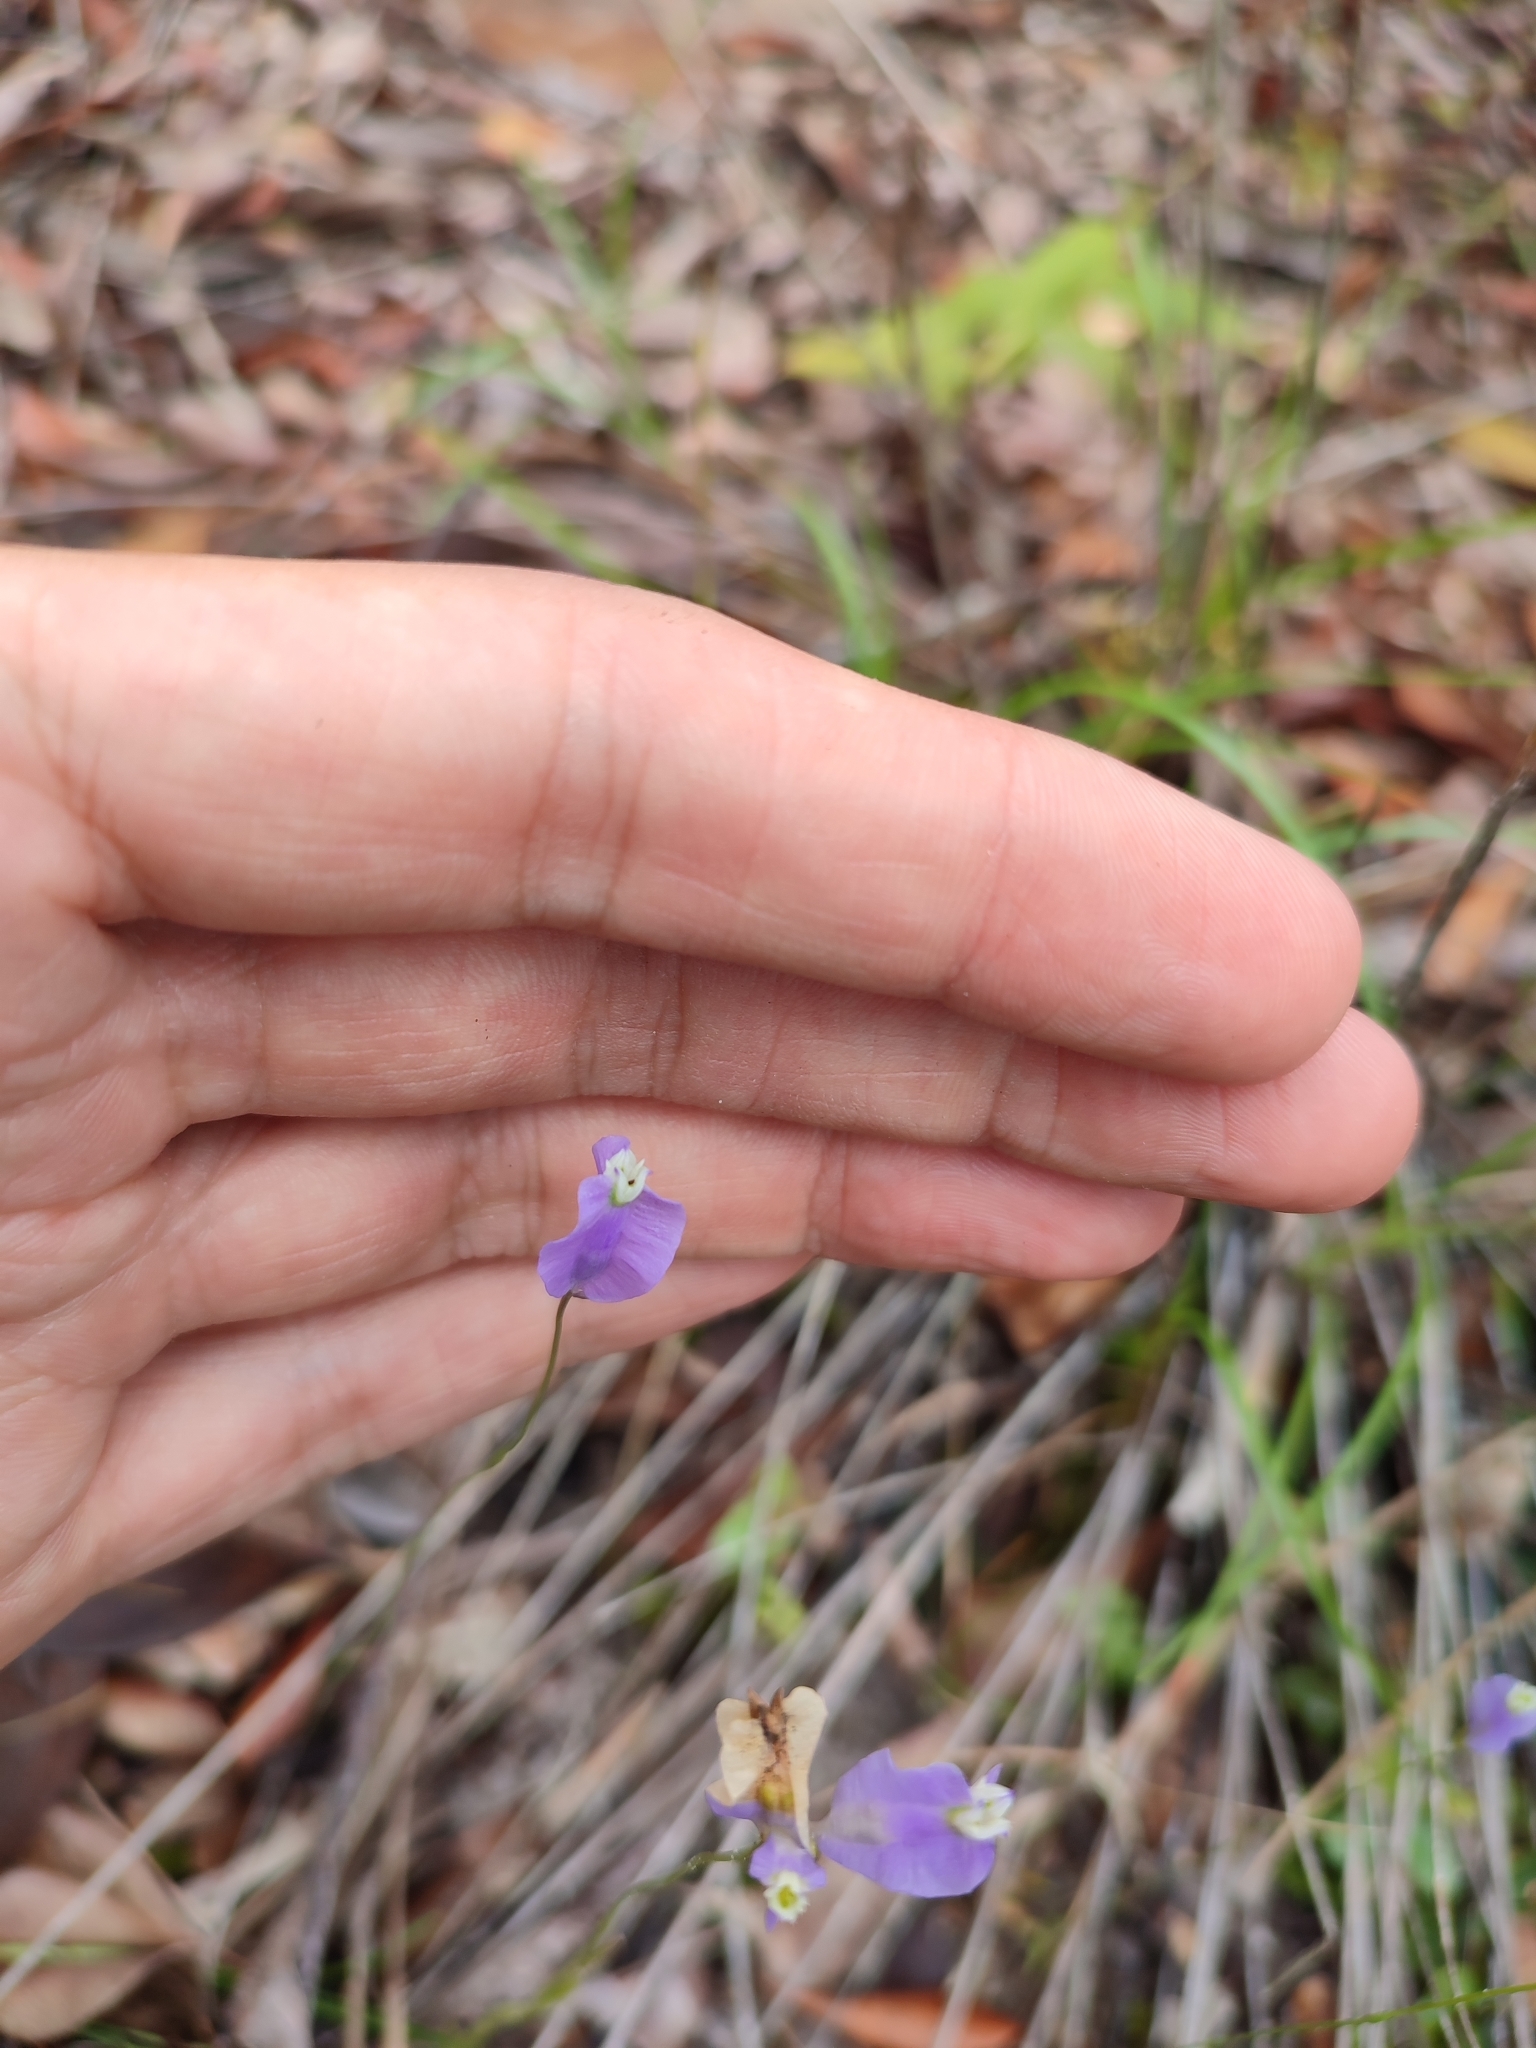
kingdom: Plantae
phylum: Tracheophyta
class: Liliopsida
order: Dioscoreales
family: Burmanniaceae
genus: Burmannia
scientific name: Burmannia coelestis
